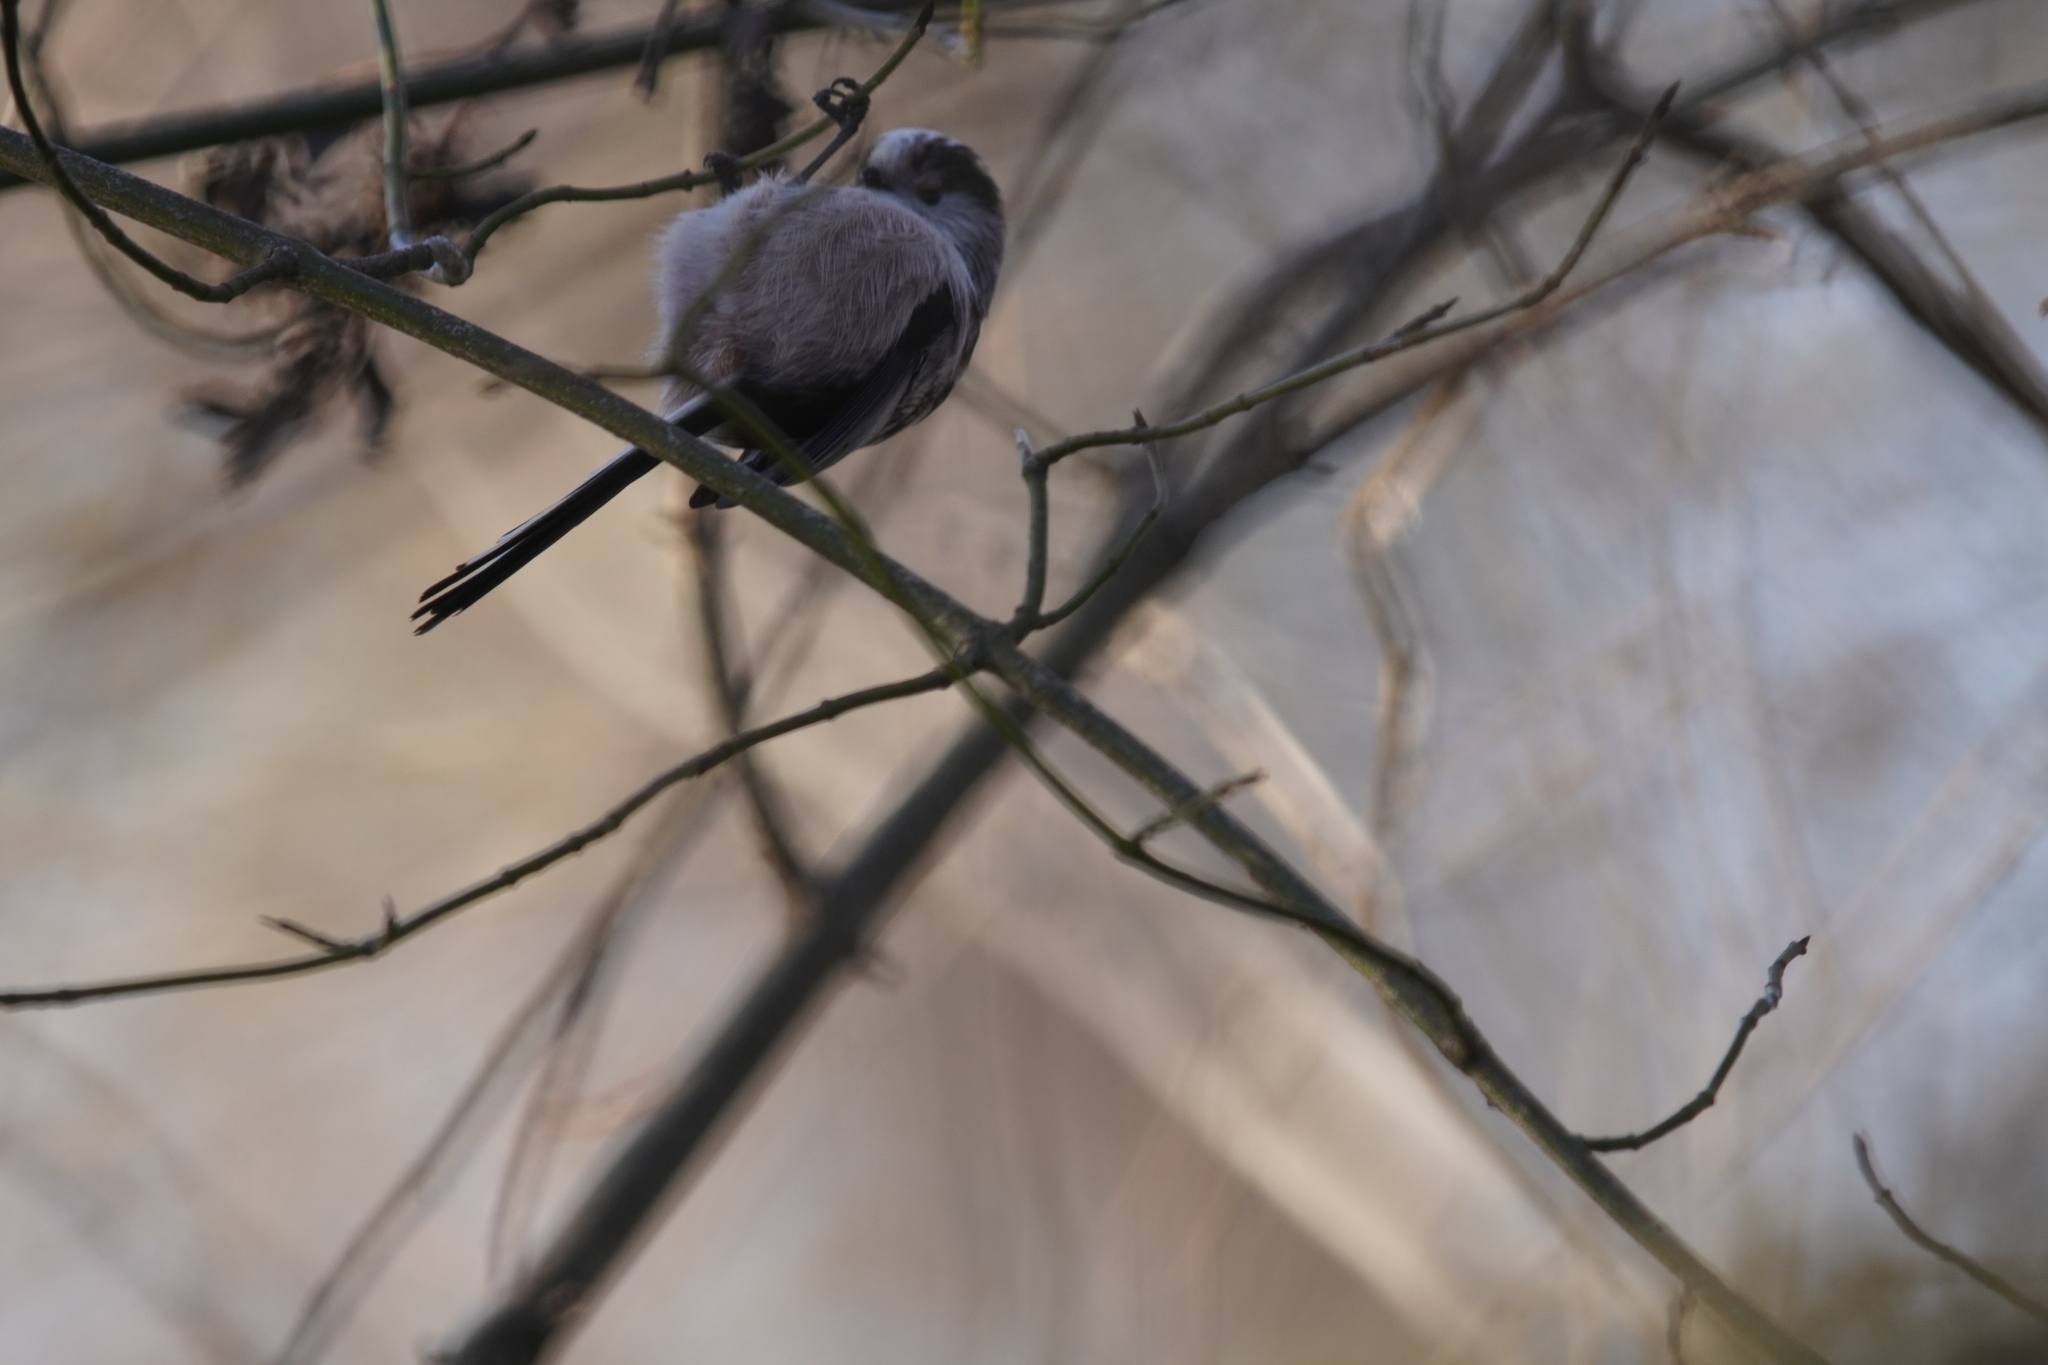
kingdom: Animalia
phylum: Chordata
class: Aves
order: Passeriformes
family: Aegithalidae
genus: Aegithalos
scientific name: Aegithalos caudatus
